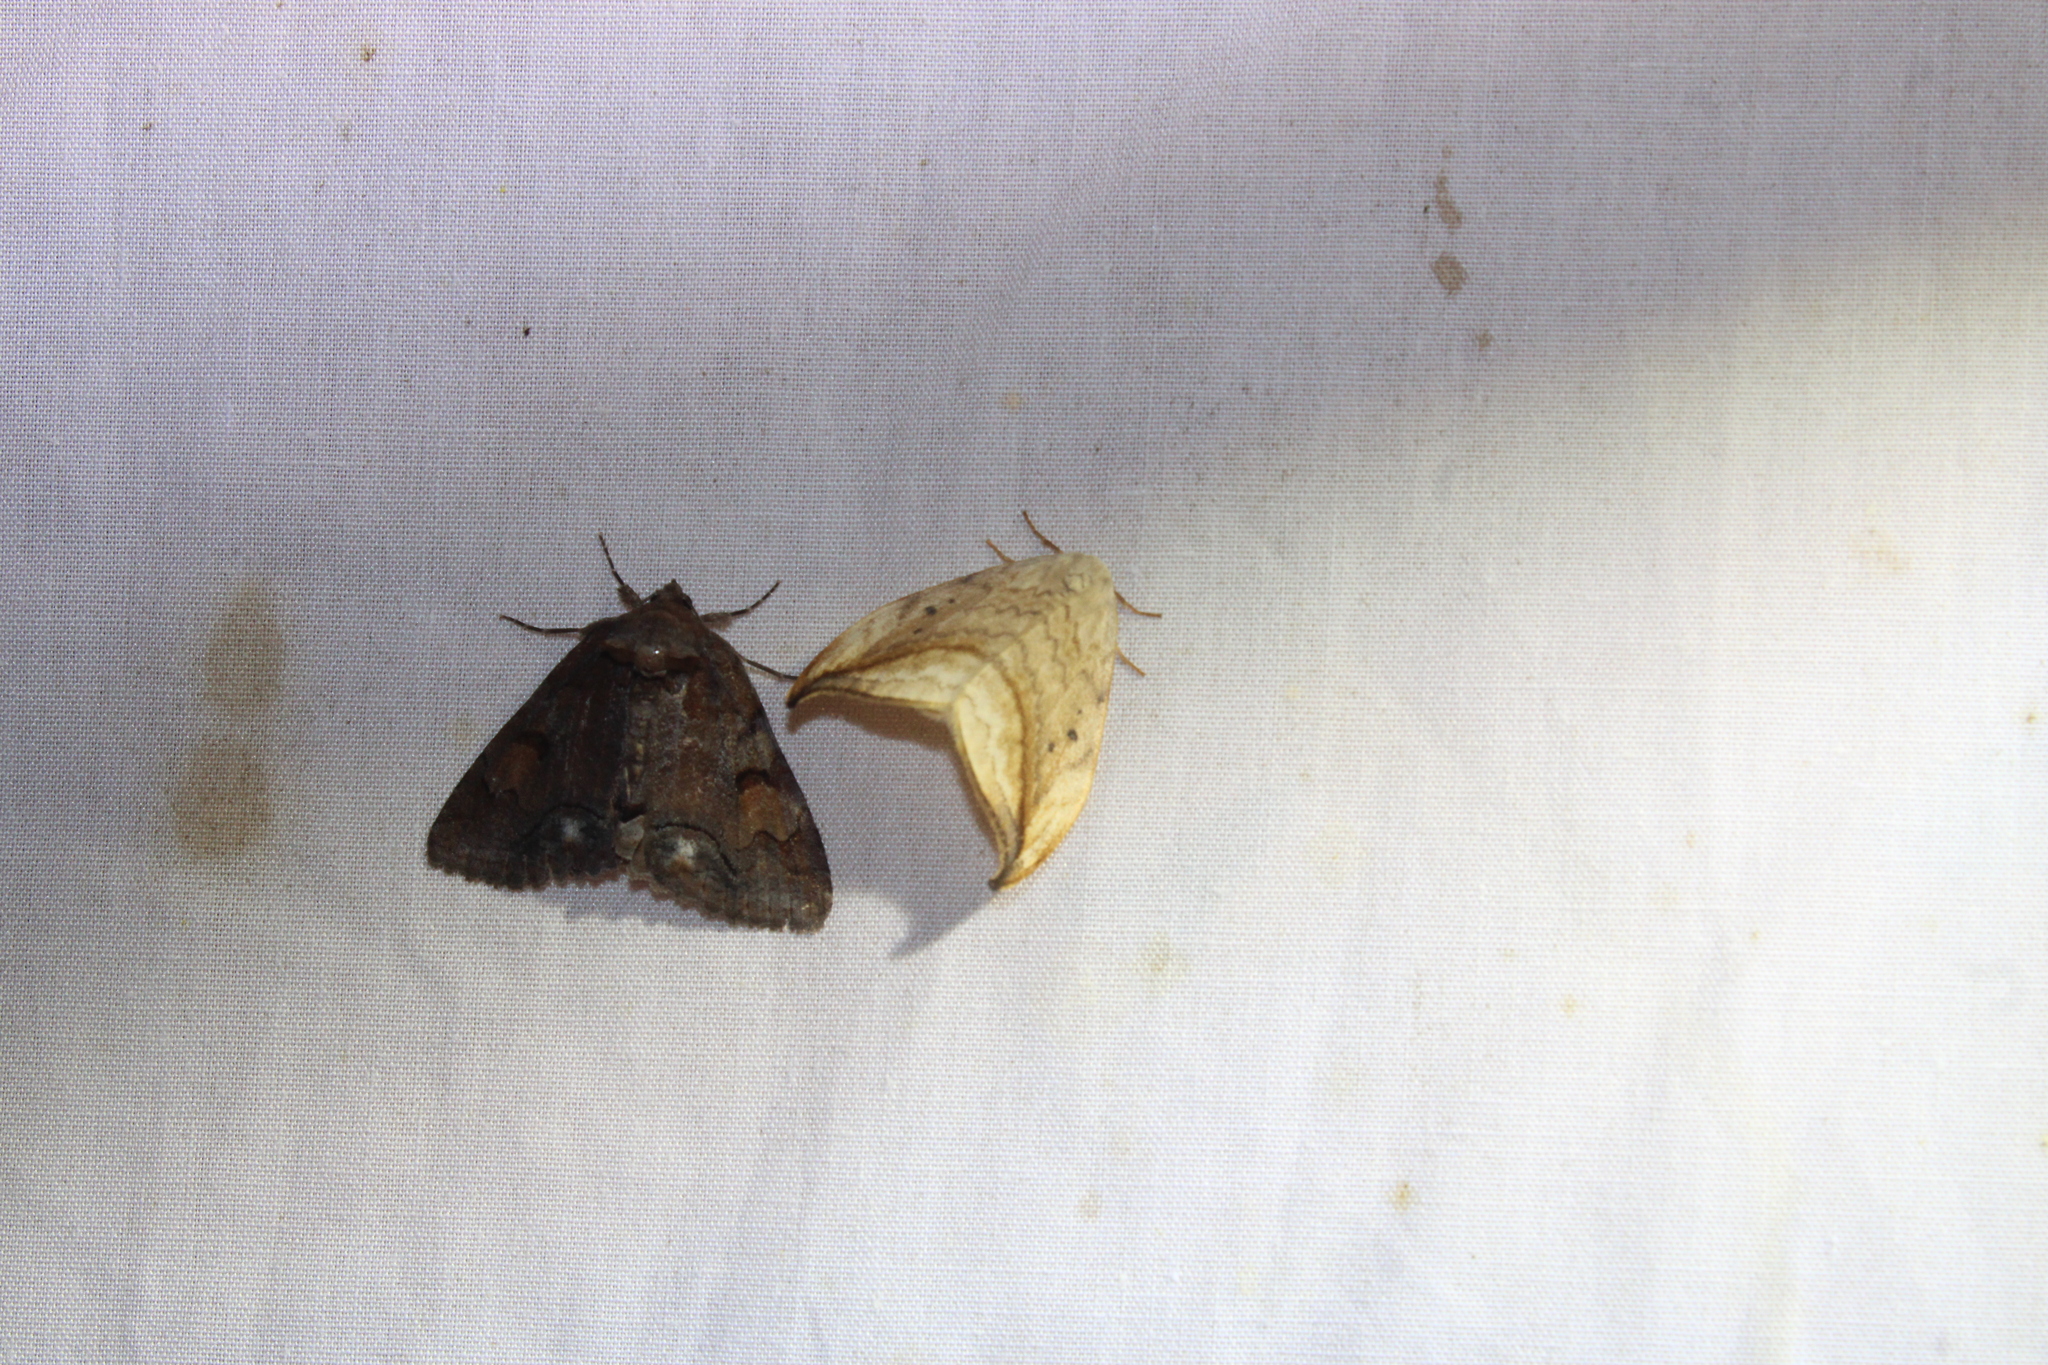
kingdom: Animalia
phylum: Arthropoda
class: Insecta
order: Lepidoptera
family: Erebidae
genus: Zale
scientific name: Zale metatoides
